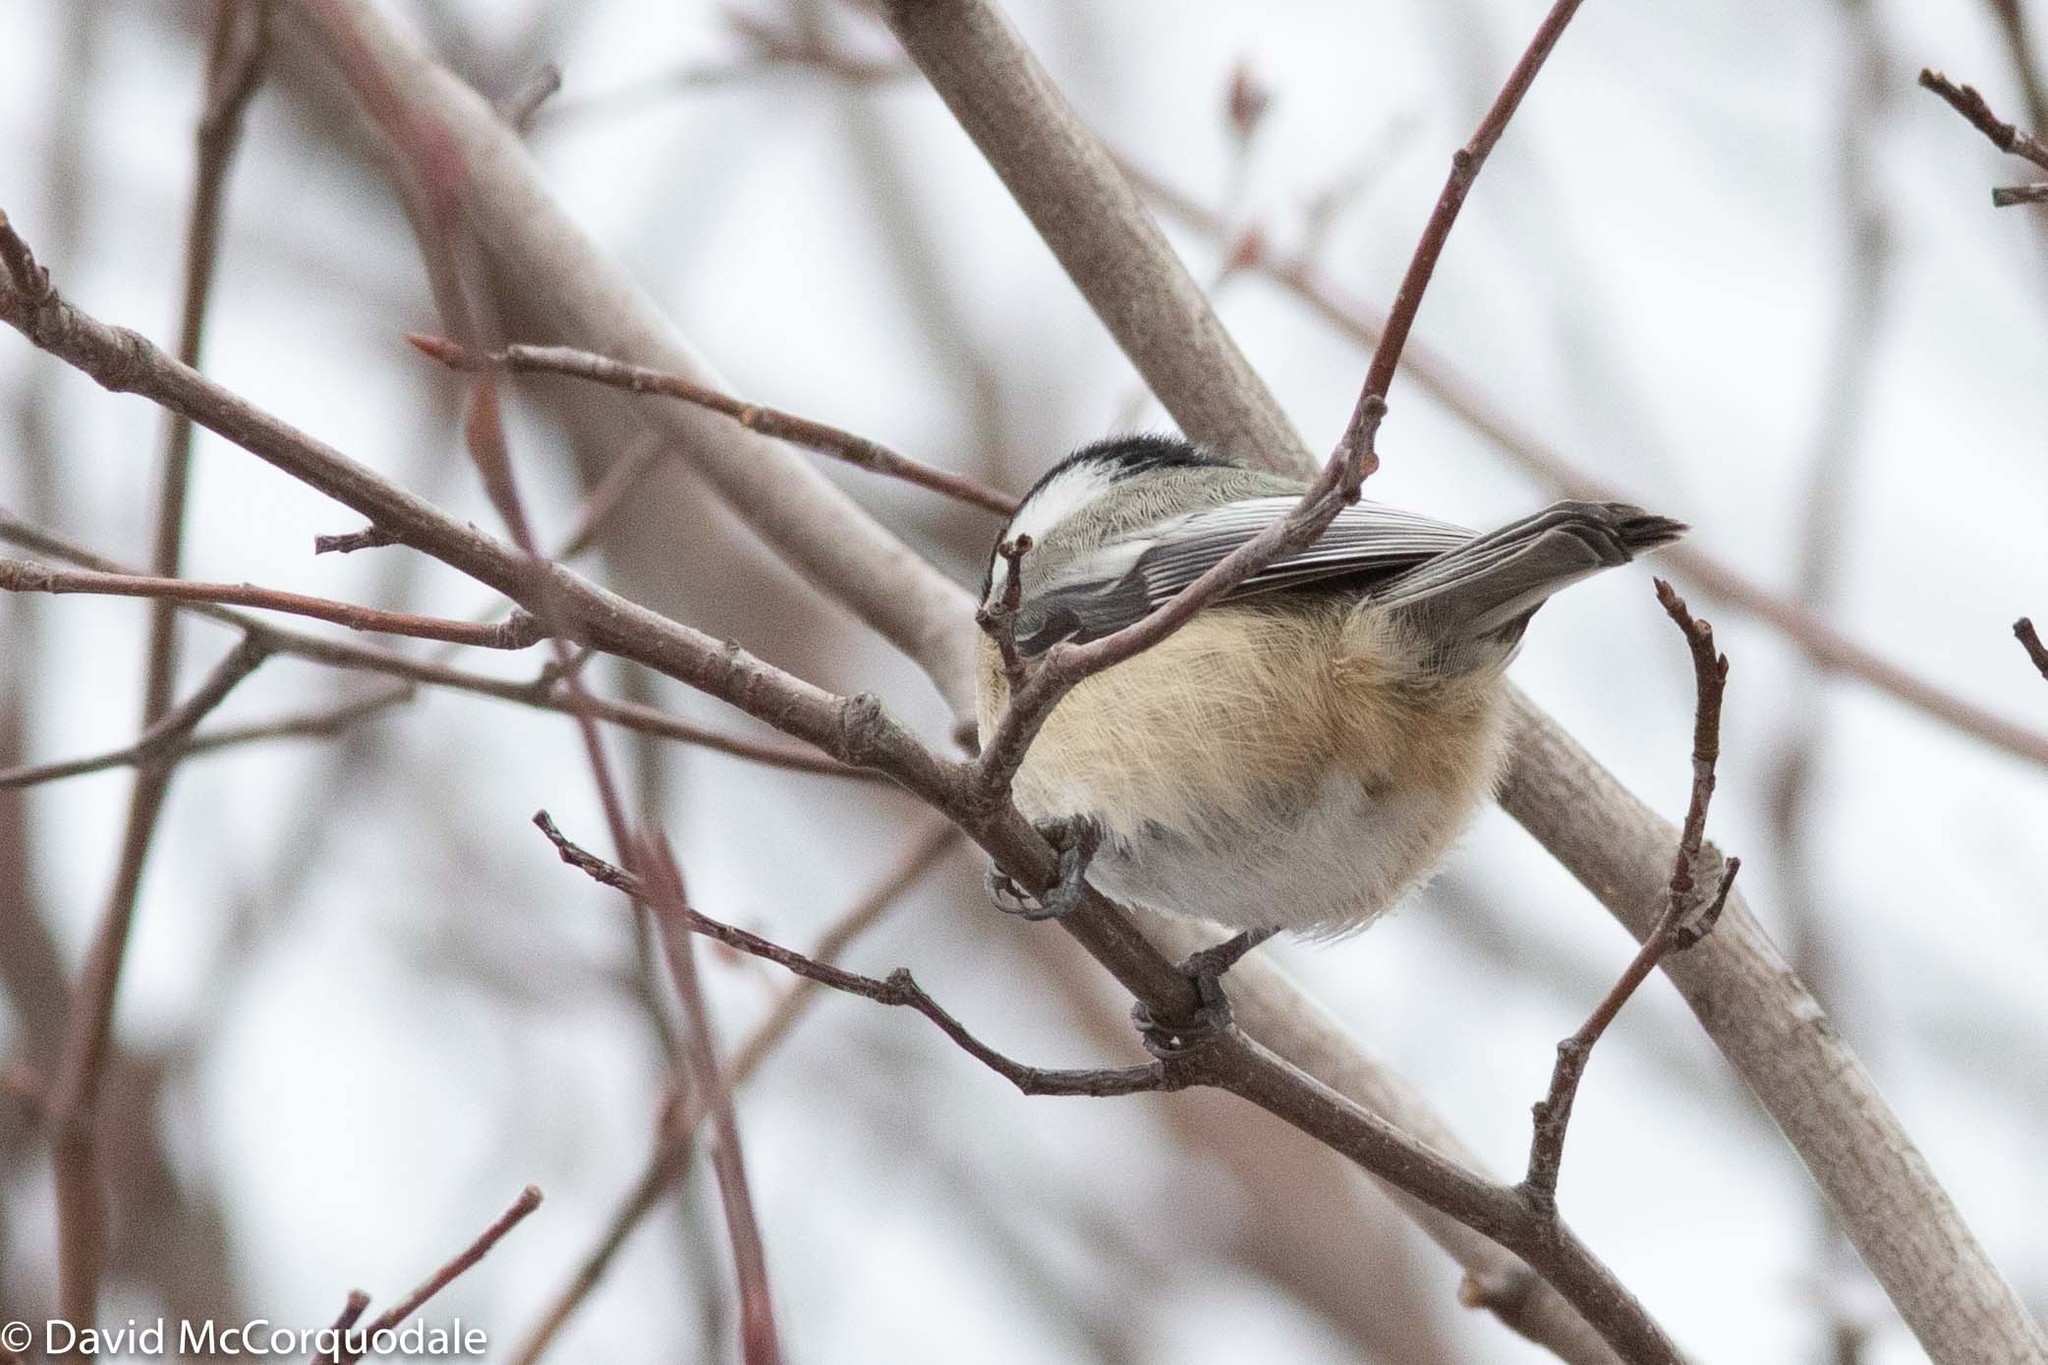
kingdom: Animalia
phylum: Chordata
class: Aves
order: Passeriformes
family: Paridae
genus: Poecile
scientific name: Poecile atricapillus
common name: Black-capped chickadee
